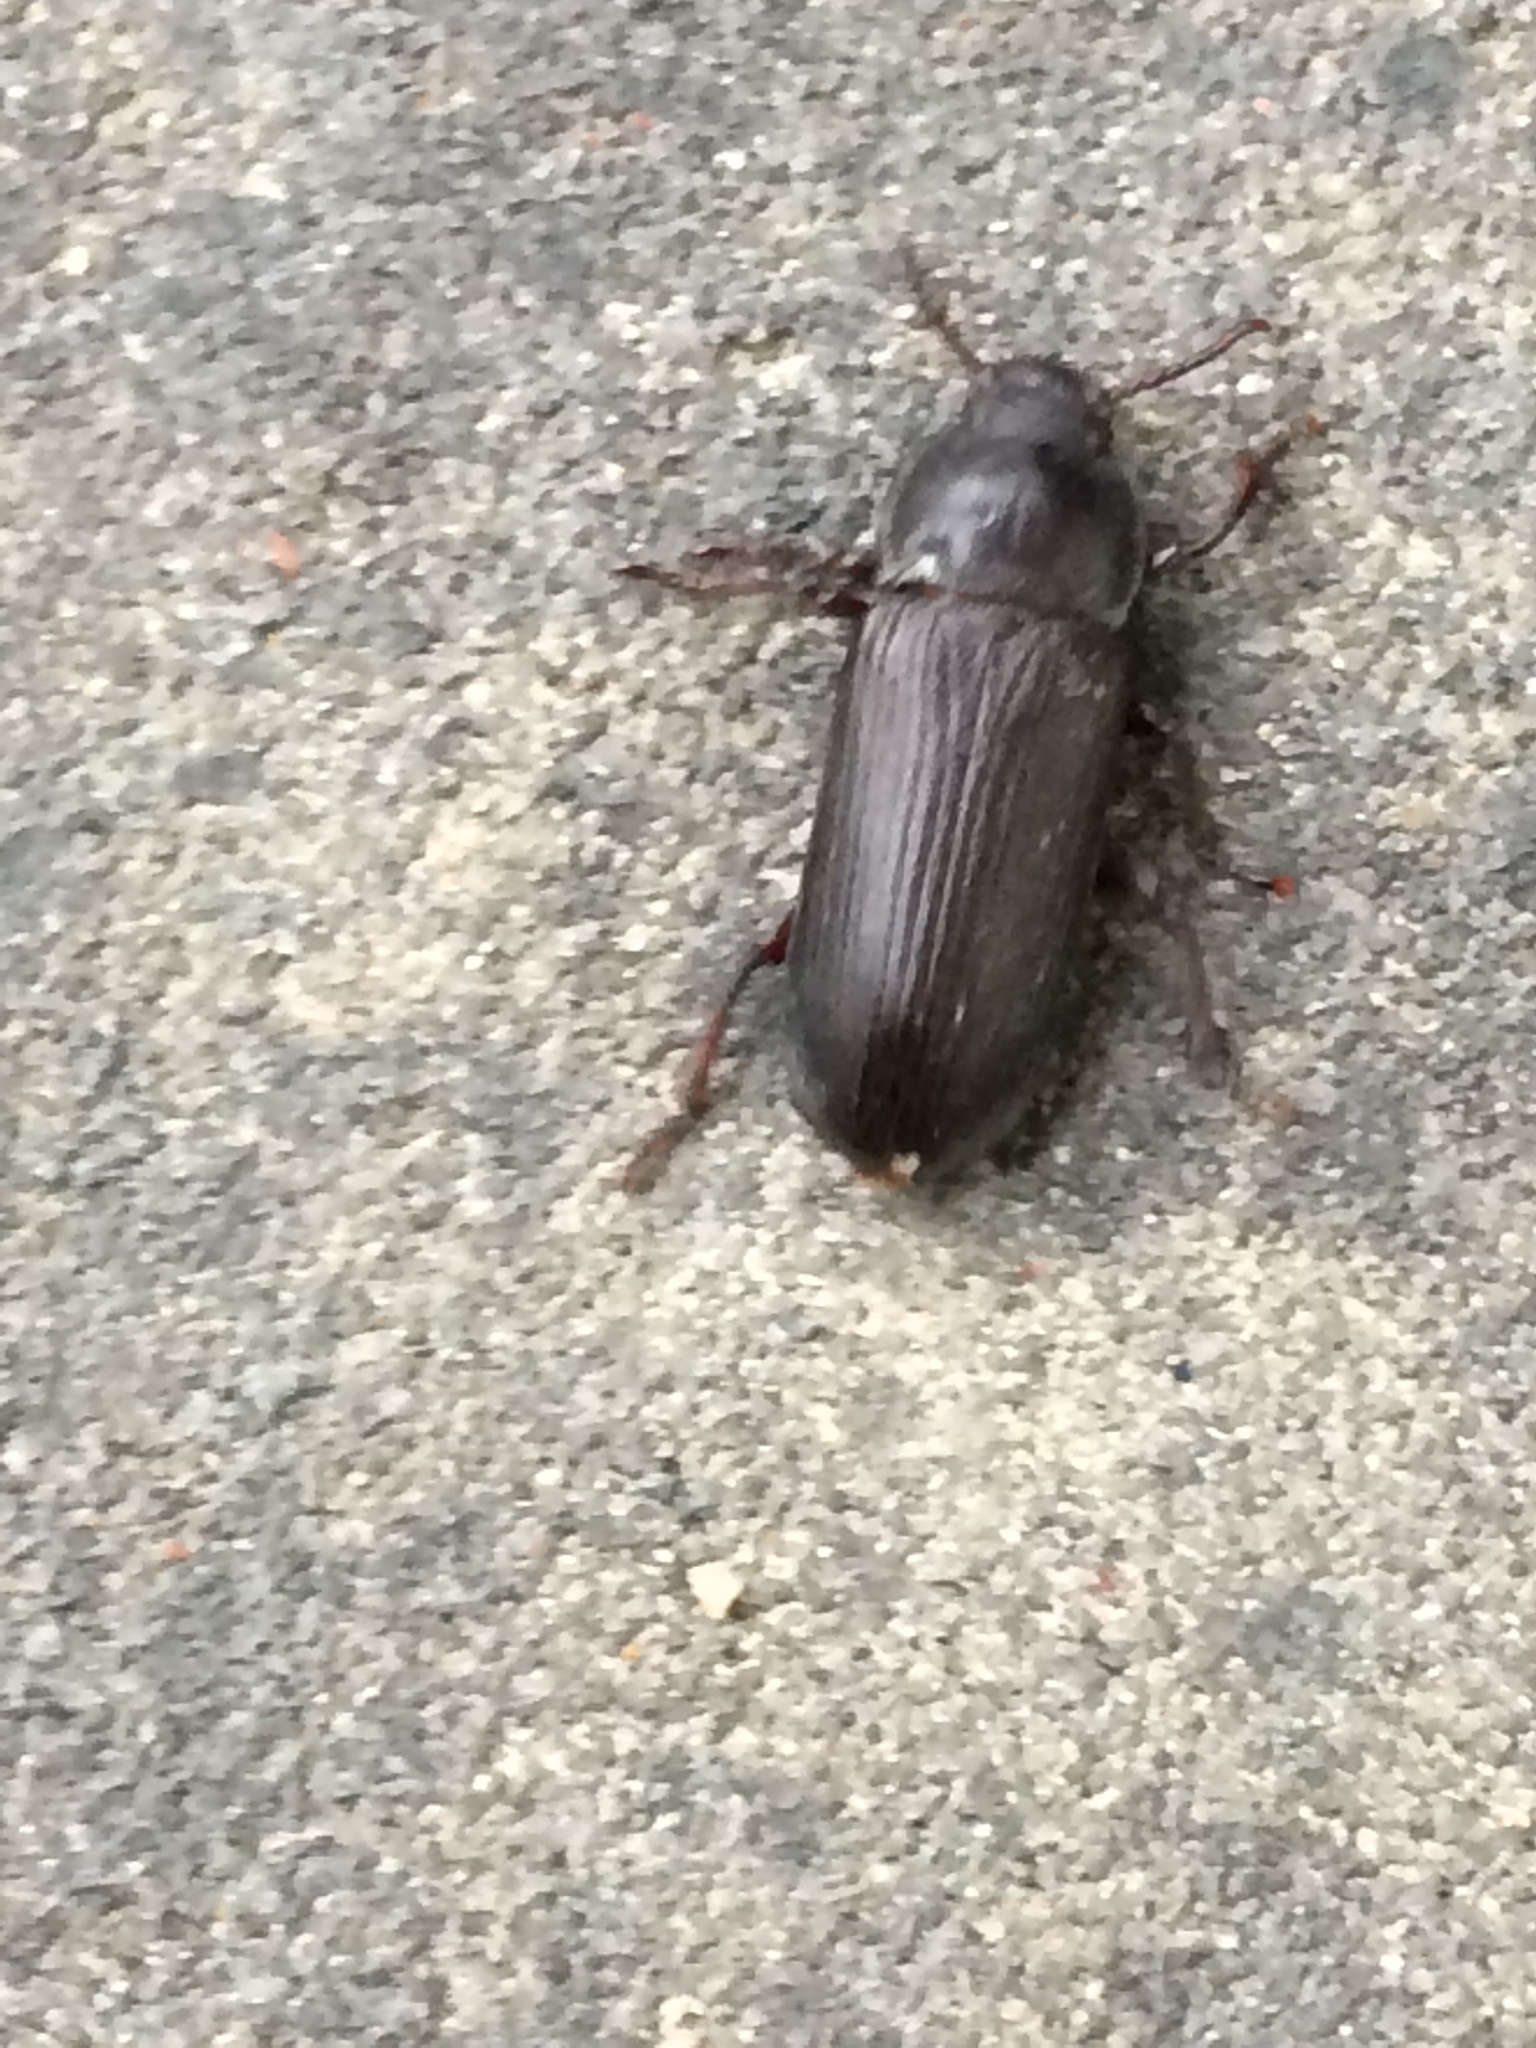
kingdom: Animalia
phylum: Arthropoda
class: Insecta
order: Coleoptera
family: Tenebrionidae
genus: Tenebrio
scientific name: Tenebrio molitor
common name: Hardback beetle
